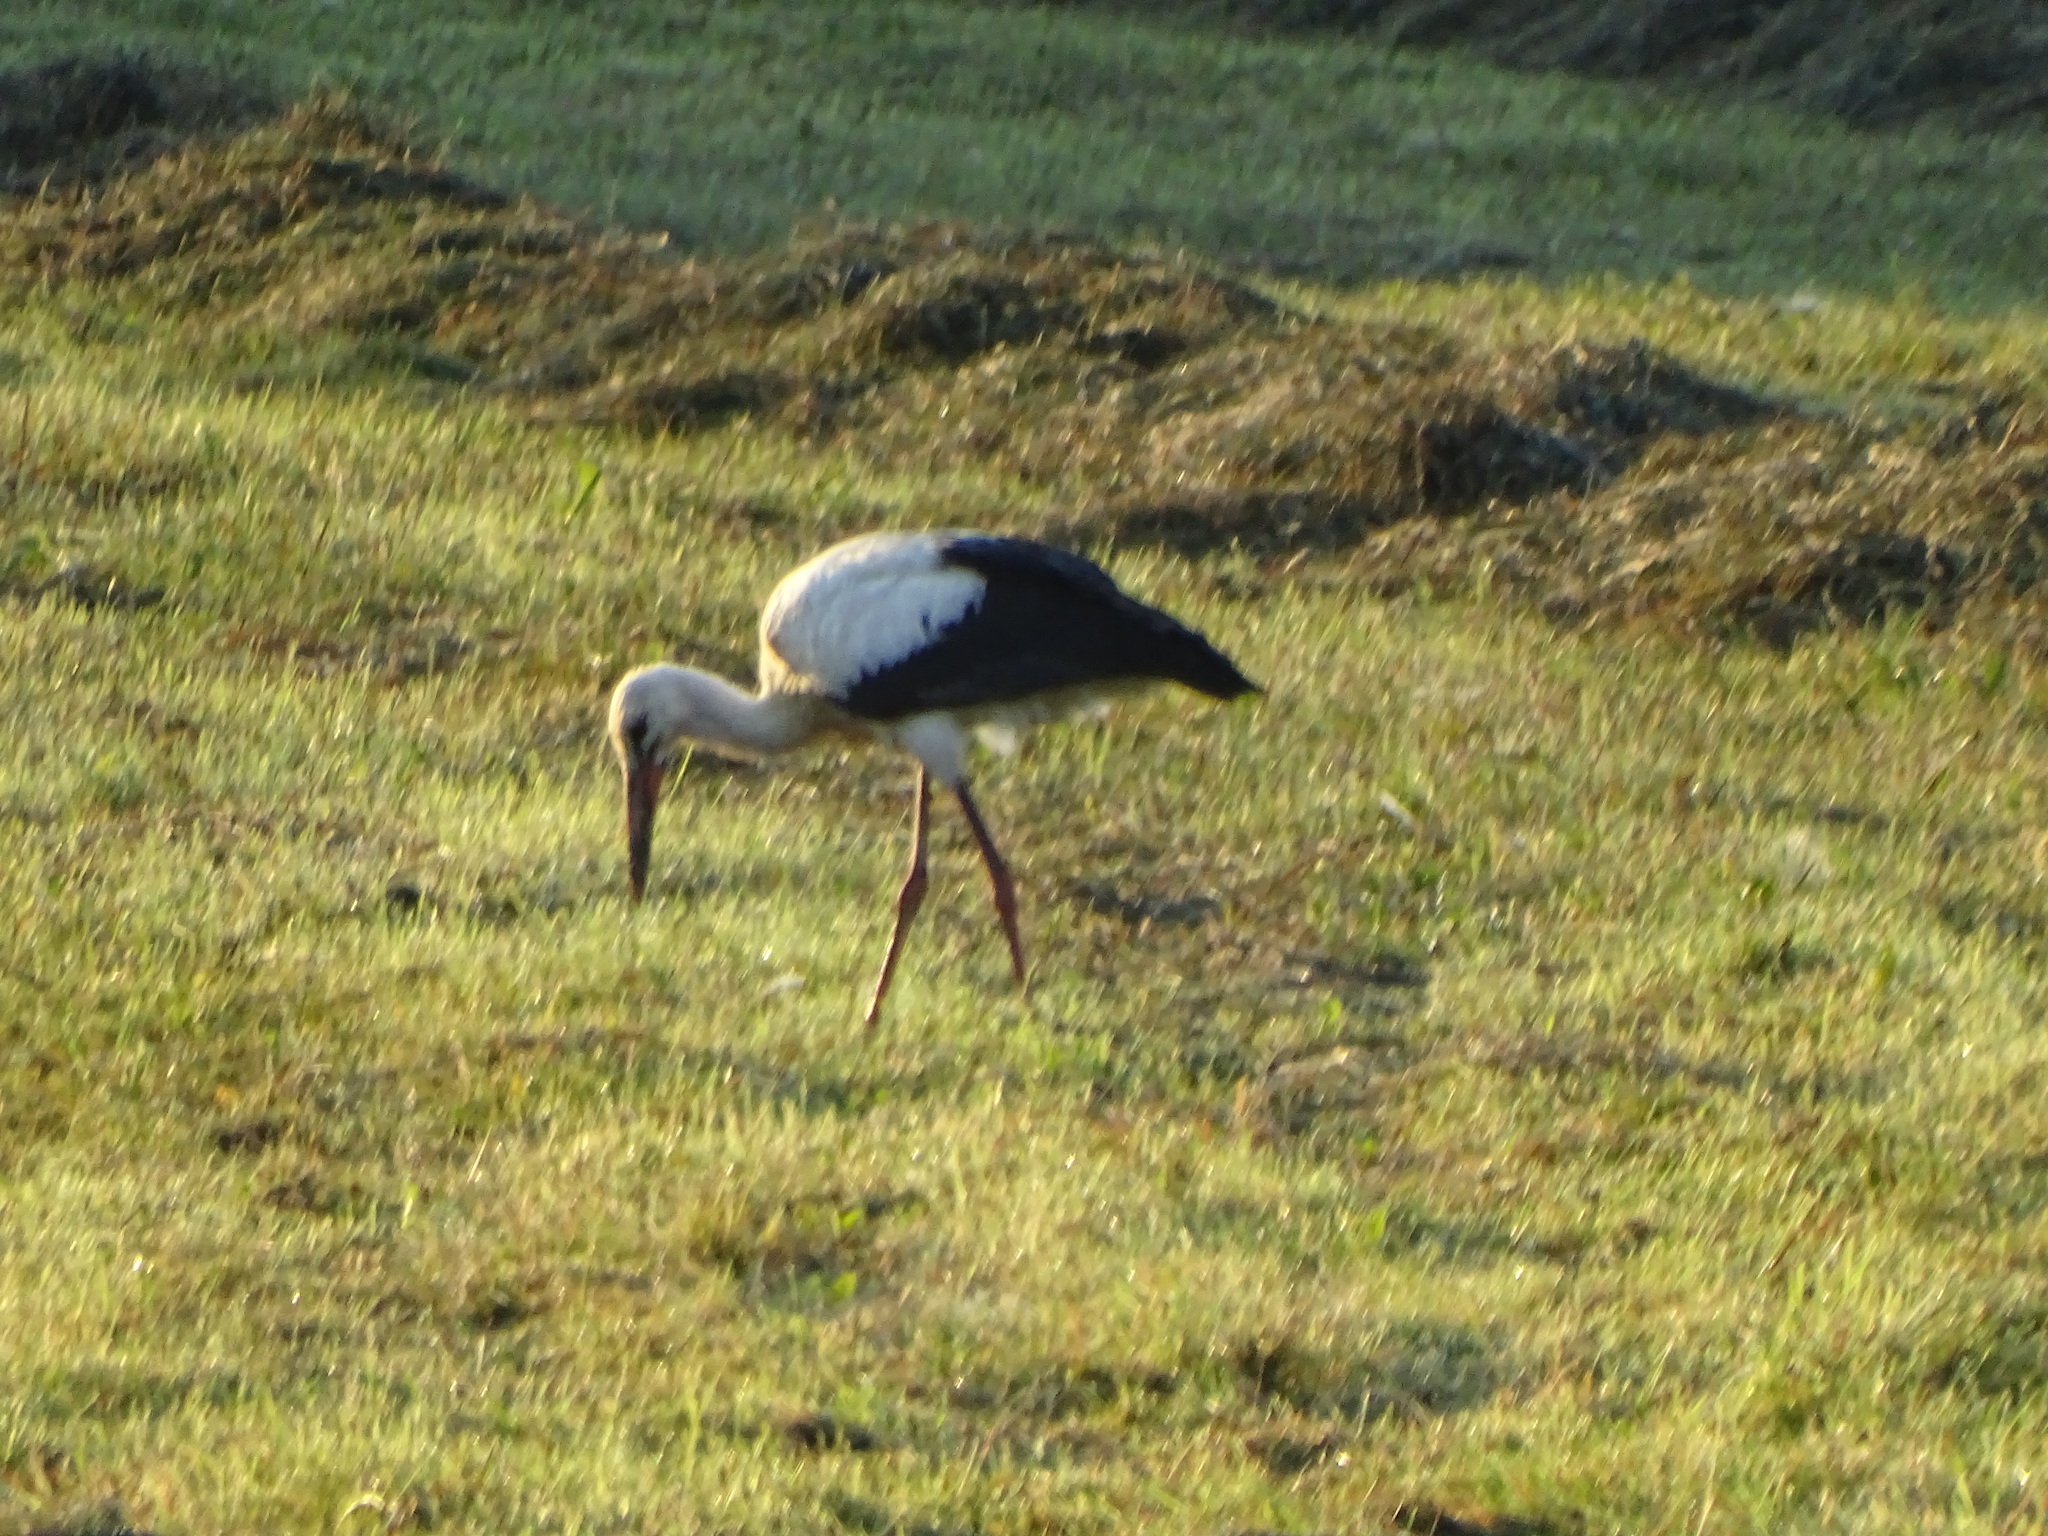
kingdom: Animalia
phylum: Chordata
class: Aves
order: Ciconiiformes
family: Ciconiidae
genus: Ciconia
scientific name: Ciconia ciconia
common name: White stork
